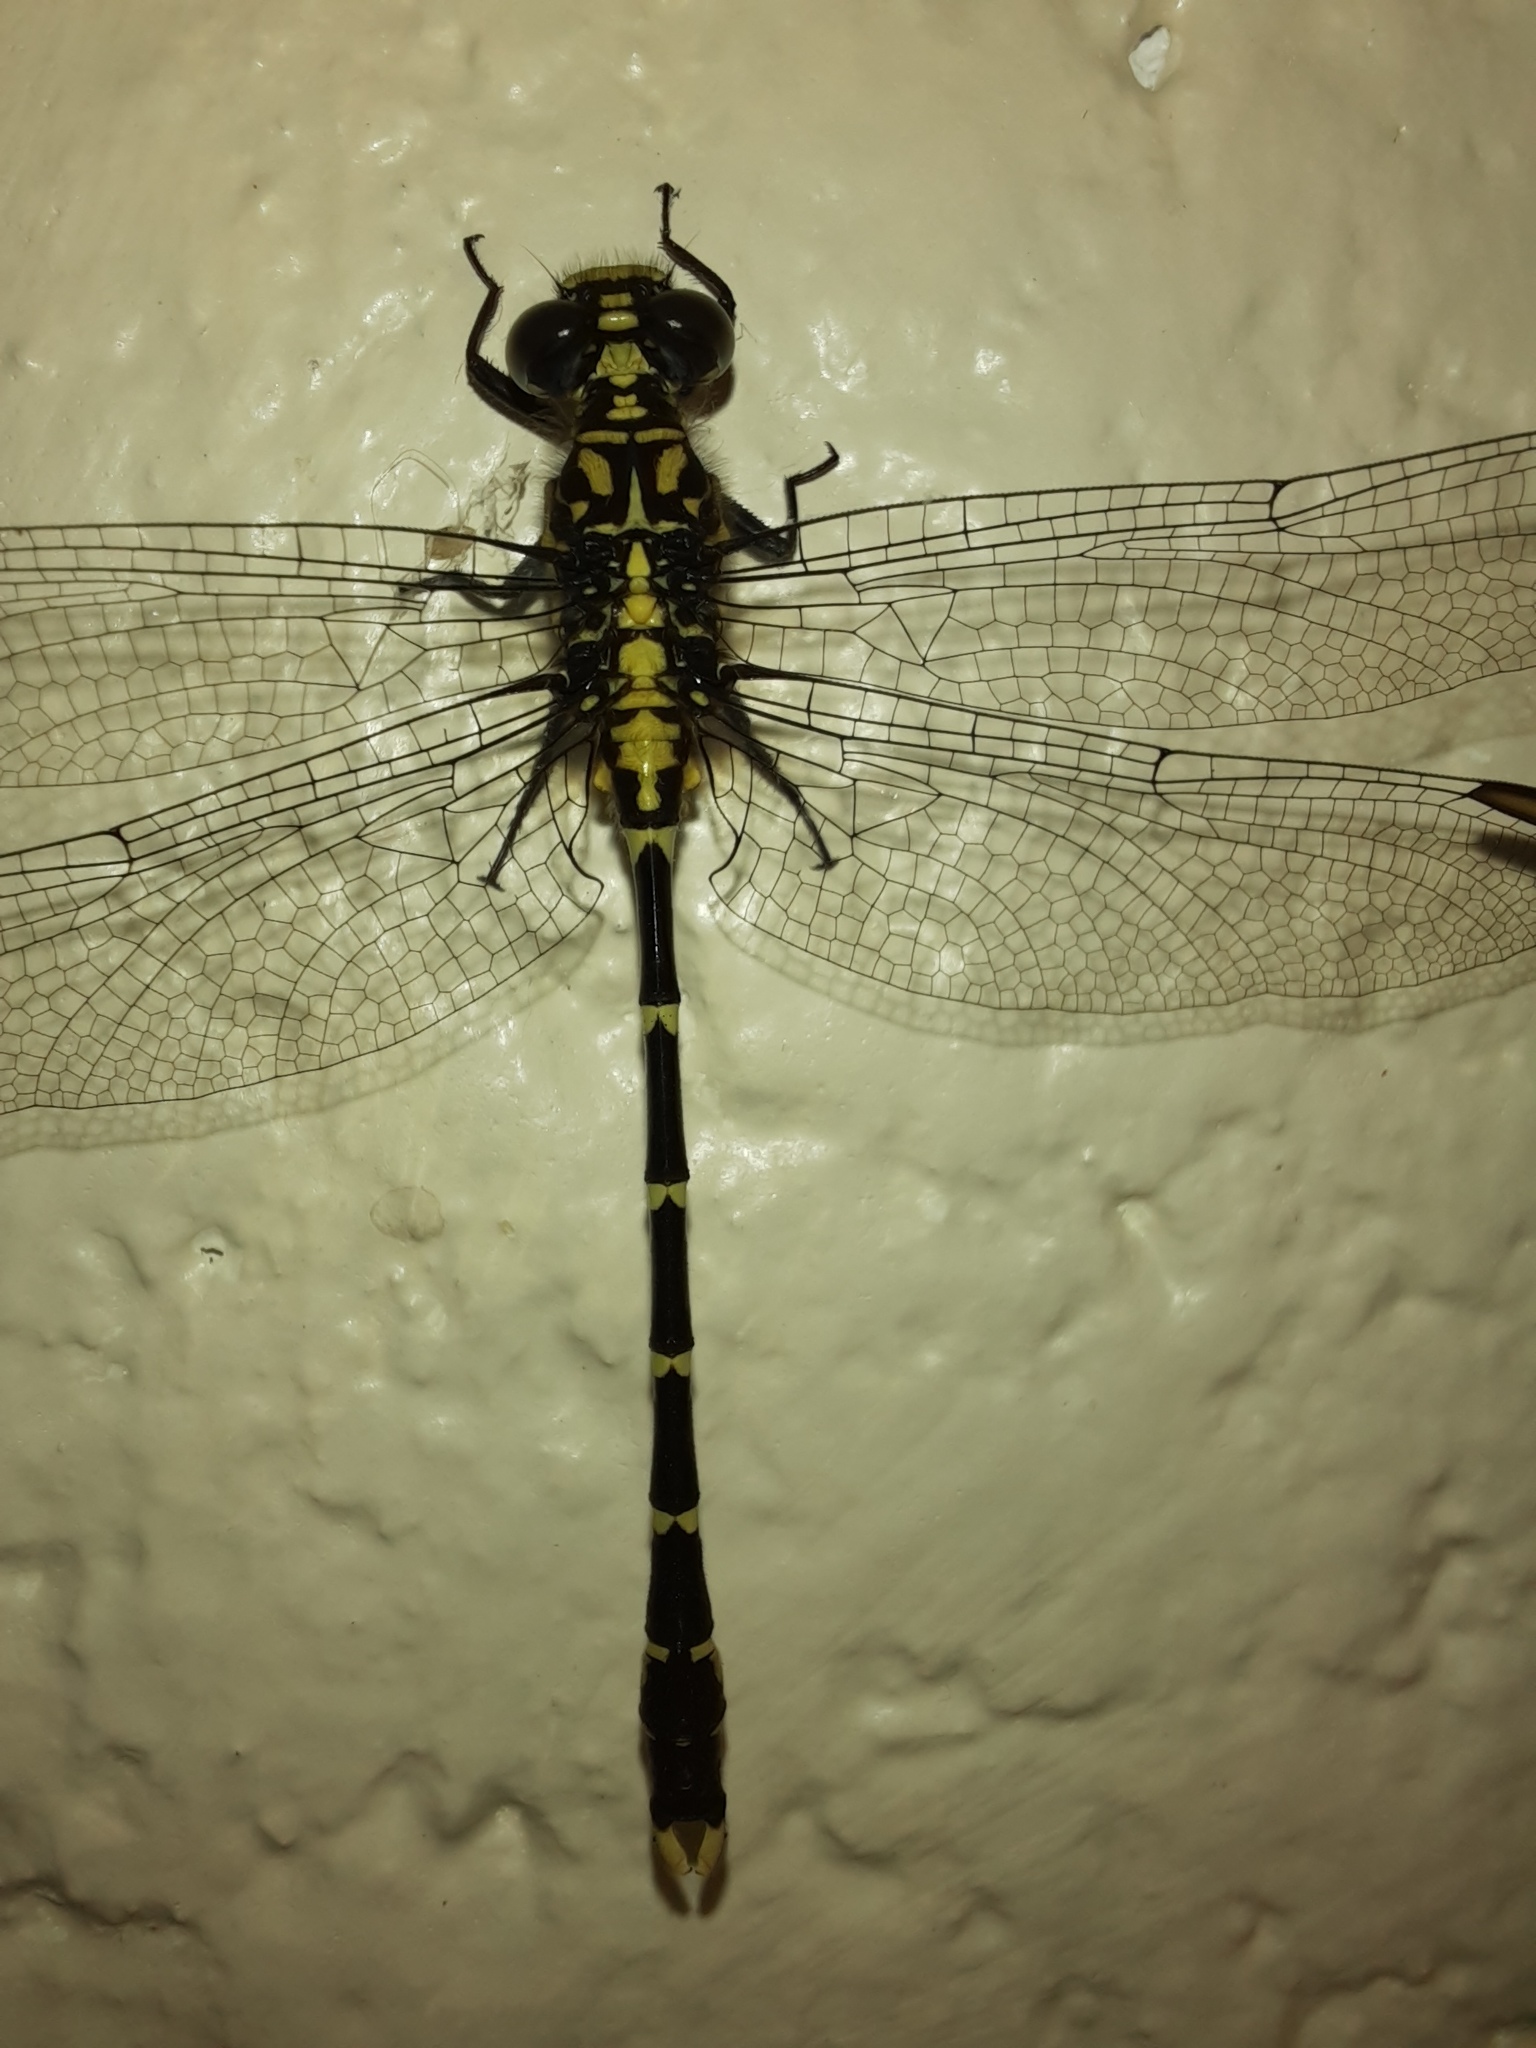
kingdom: Animalia
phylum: Arthropoda
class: Insecta
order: Odonata
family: Gomphidae
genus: Hemigomphus
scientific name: Hemigomphus gouldii
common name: Southern vicetail
